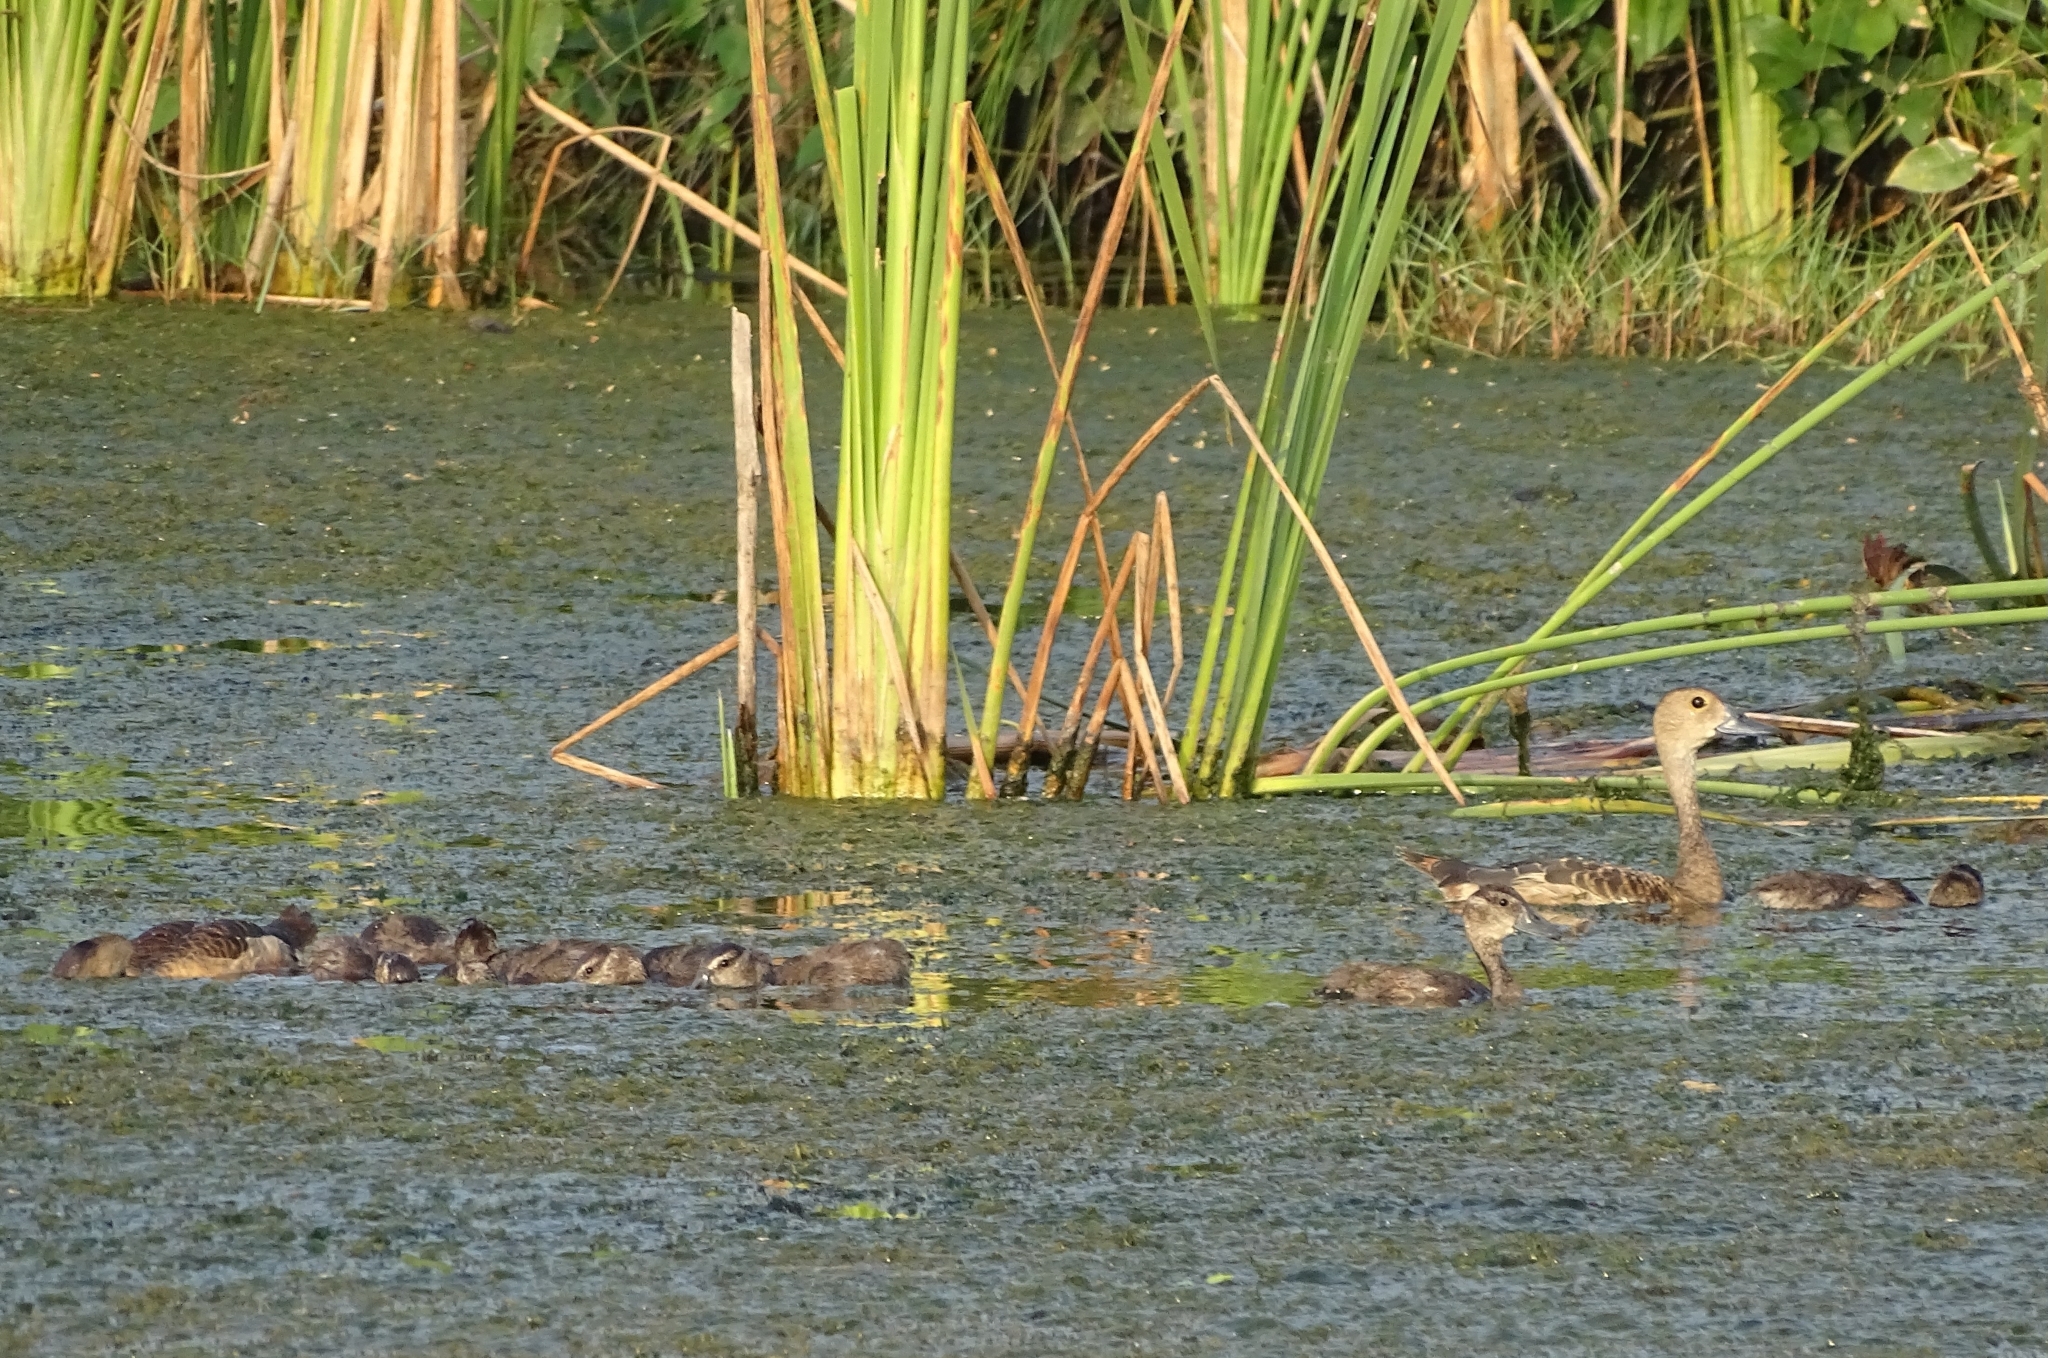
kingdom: Animalia
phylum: Chordata
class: Aves
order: Anseriformes
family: Anatidae
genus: Dendrocygna
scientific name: Dendrocygna javanica
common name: Lesser whistling-duck
